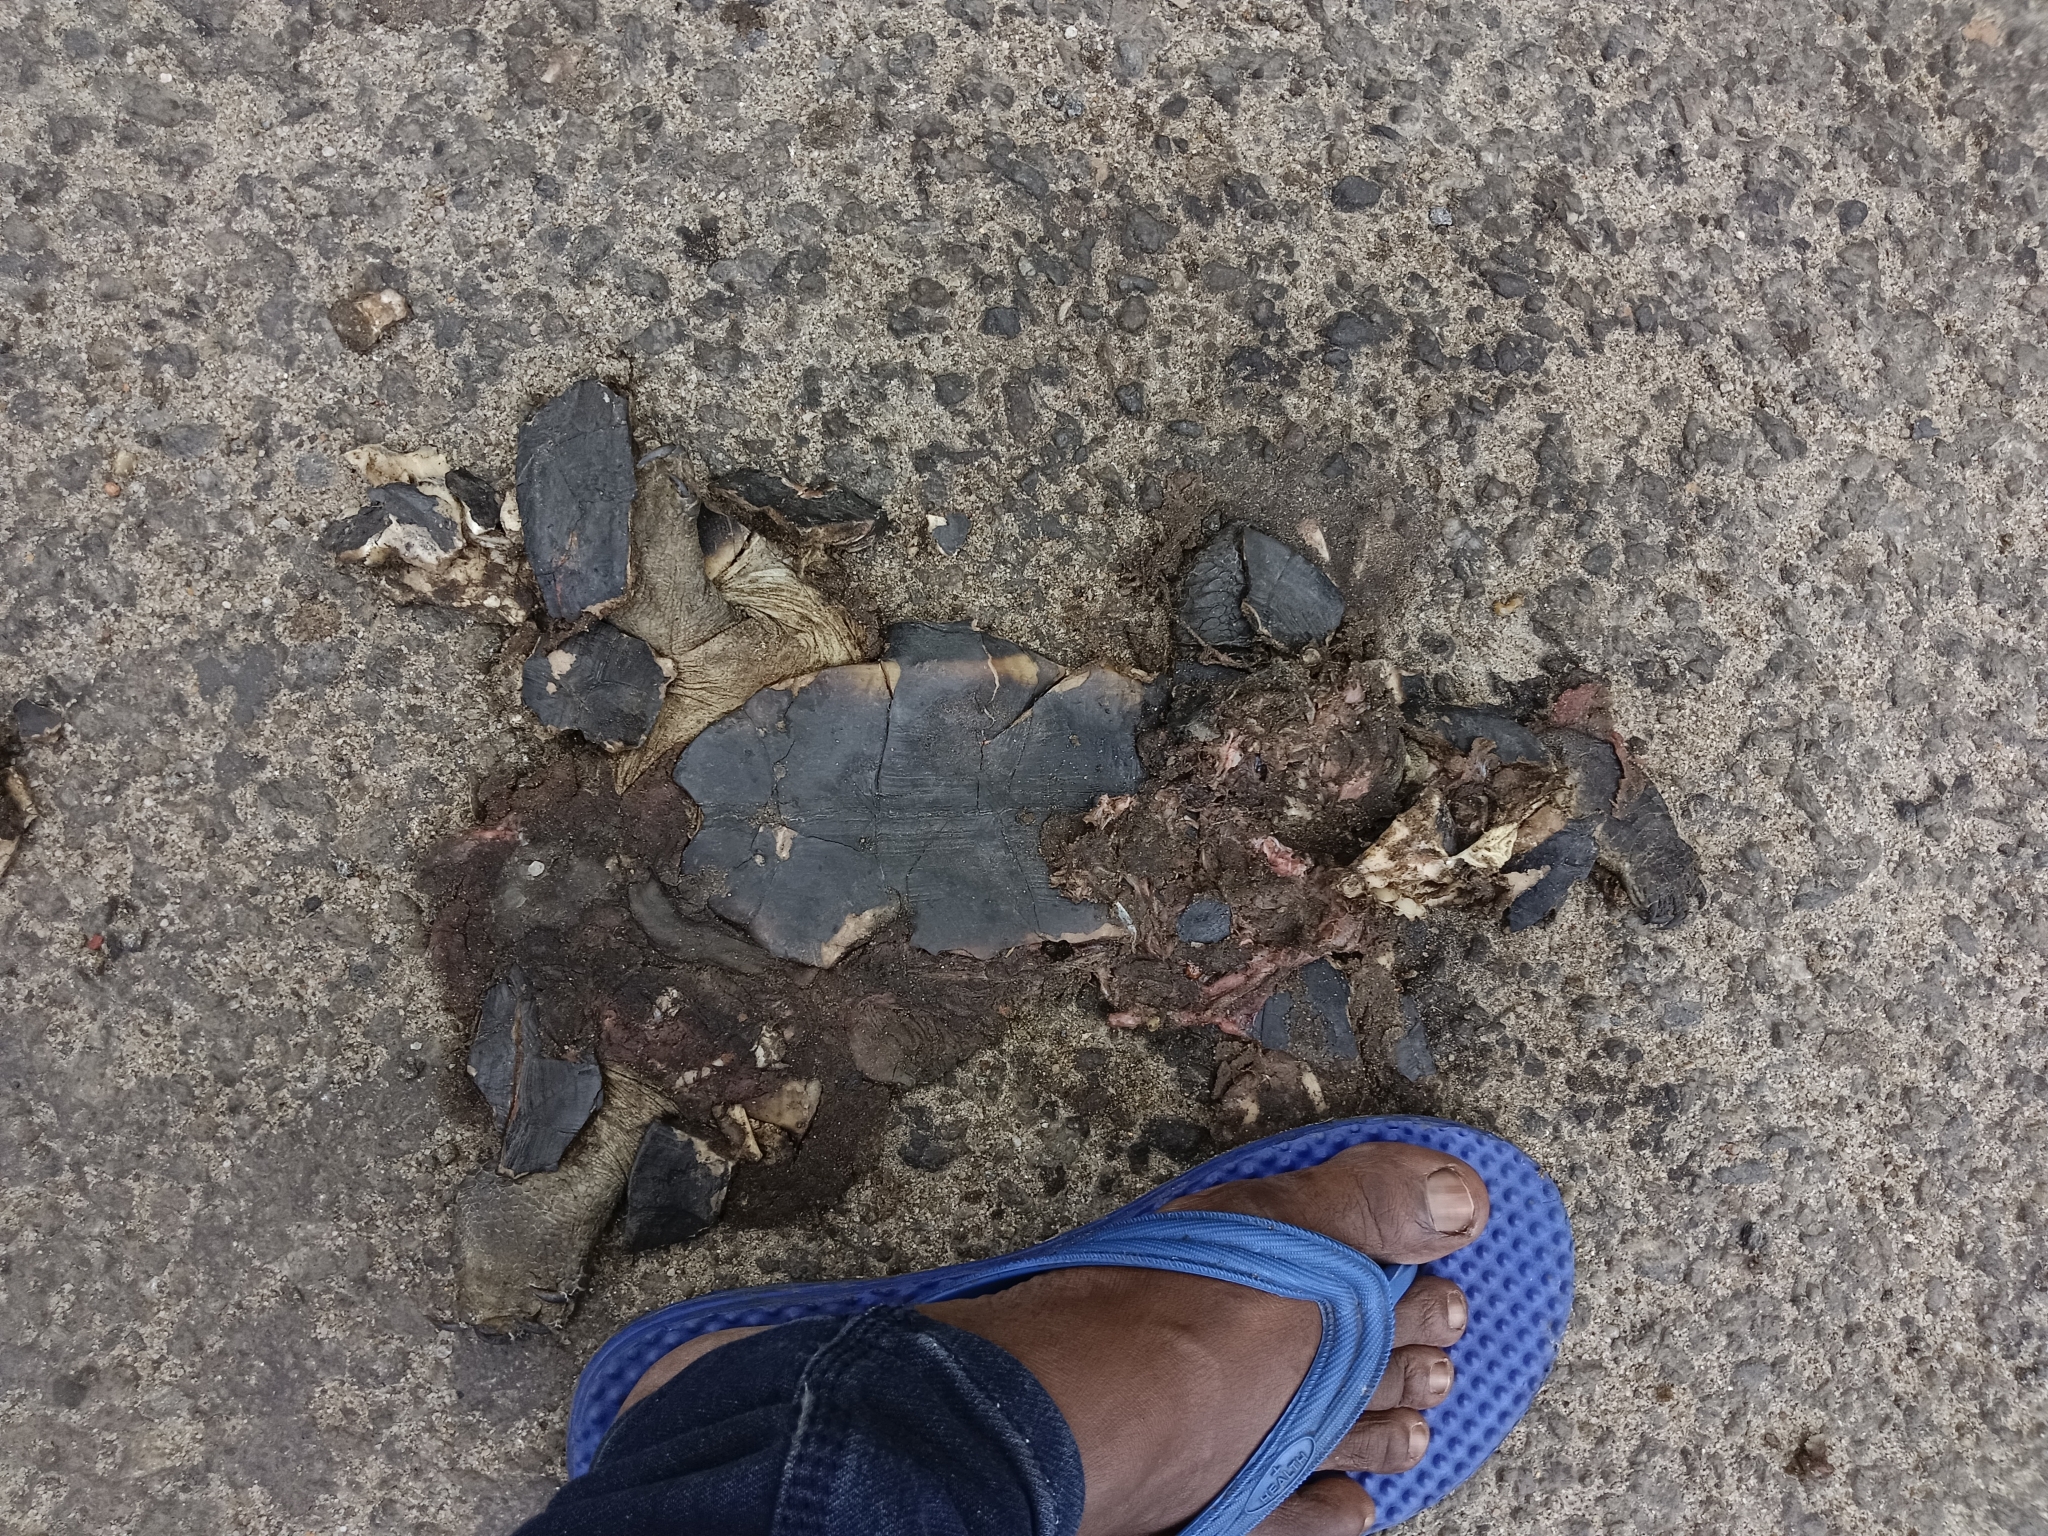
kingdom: Animalia
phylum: Chordata
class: Testudines
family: Geoemydidae
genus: Melanochelys
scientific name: Melanochelys trijuga
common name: Indian black turtle
